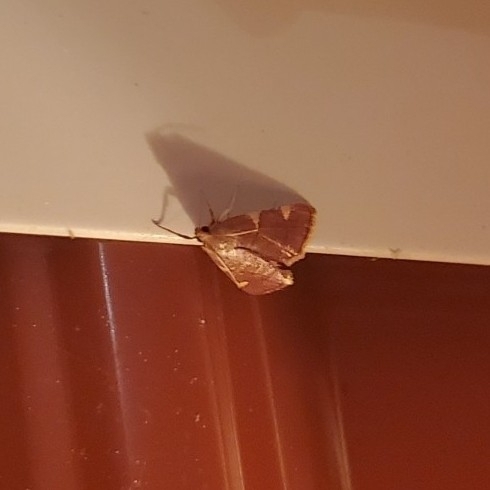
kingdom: Animalia
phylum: Arthropoda
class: Insecta
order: Lepidoptera
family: Pyralidae
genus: Hypsopygia
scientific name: Hypsopygia olinalis
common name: Yellow-fringed dolichomia moth
